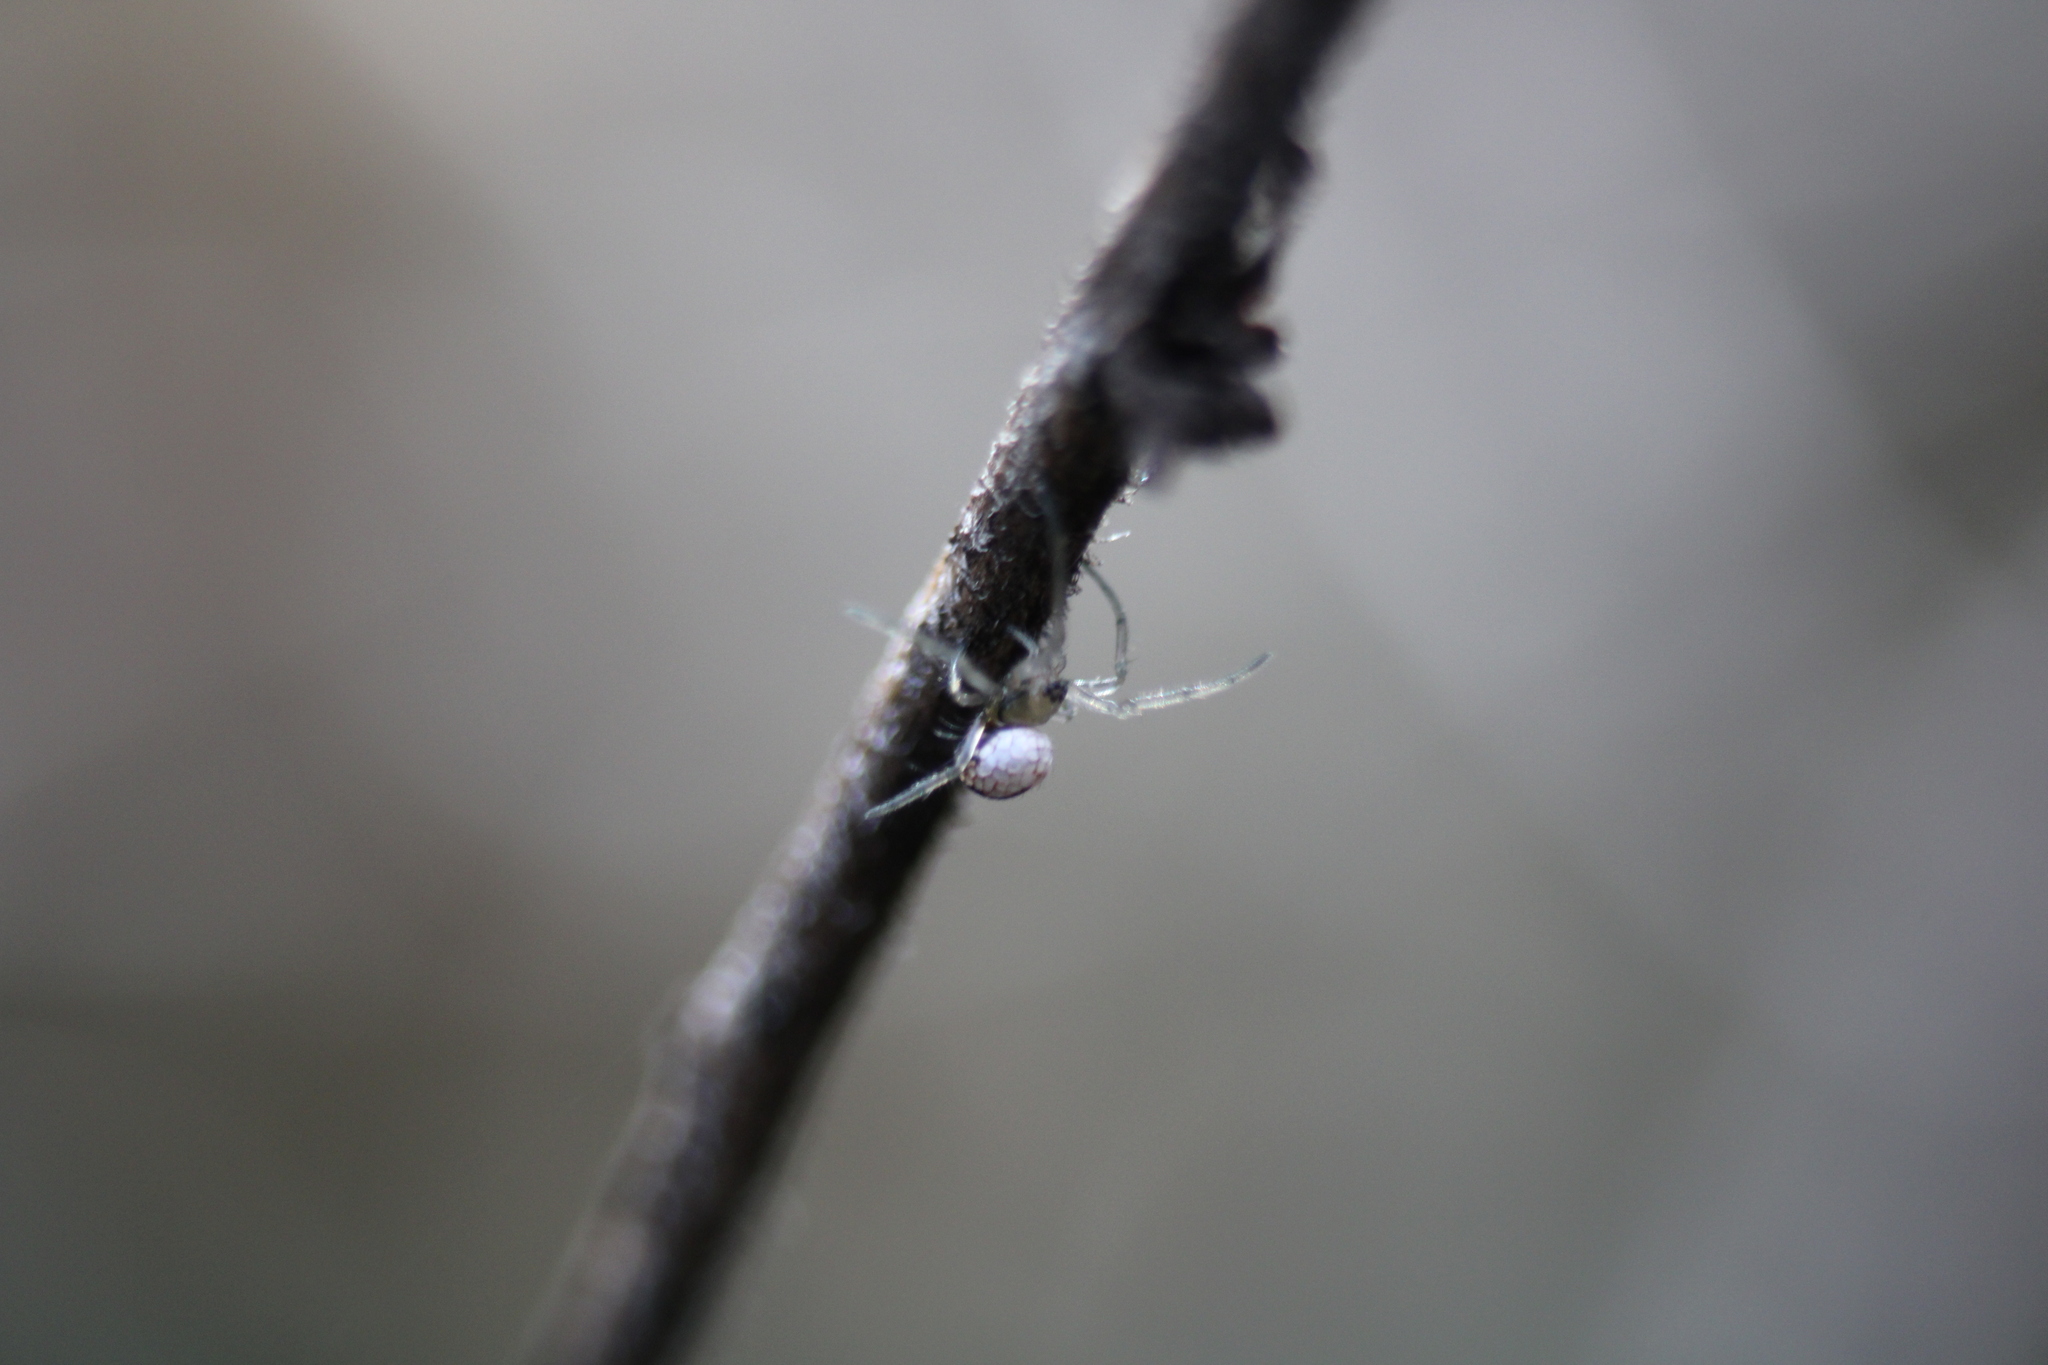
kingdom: Animalia
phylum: Arthropoda
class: Arachnida
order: Araneae
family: Tetragnathidae
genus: Leucauge
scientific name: Leucauge venusta
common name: Longjawed orb weavers
